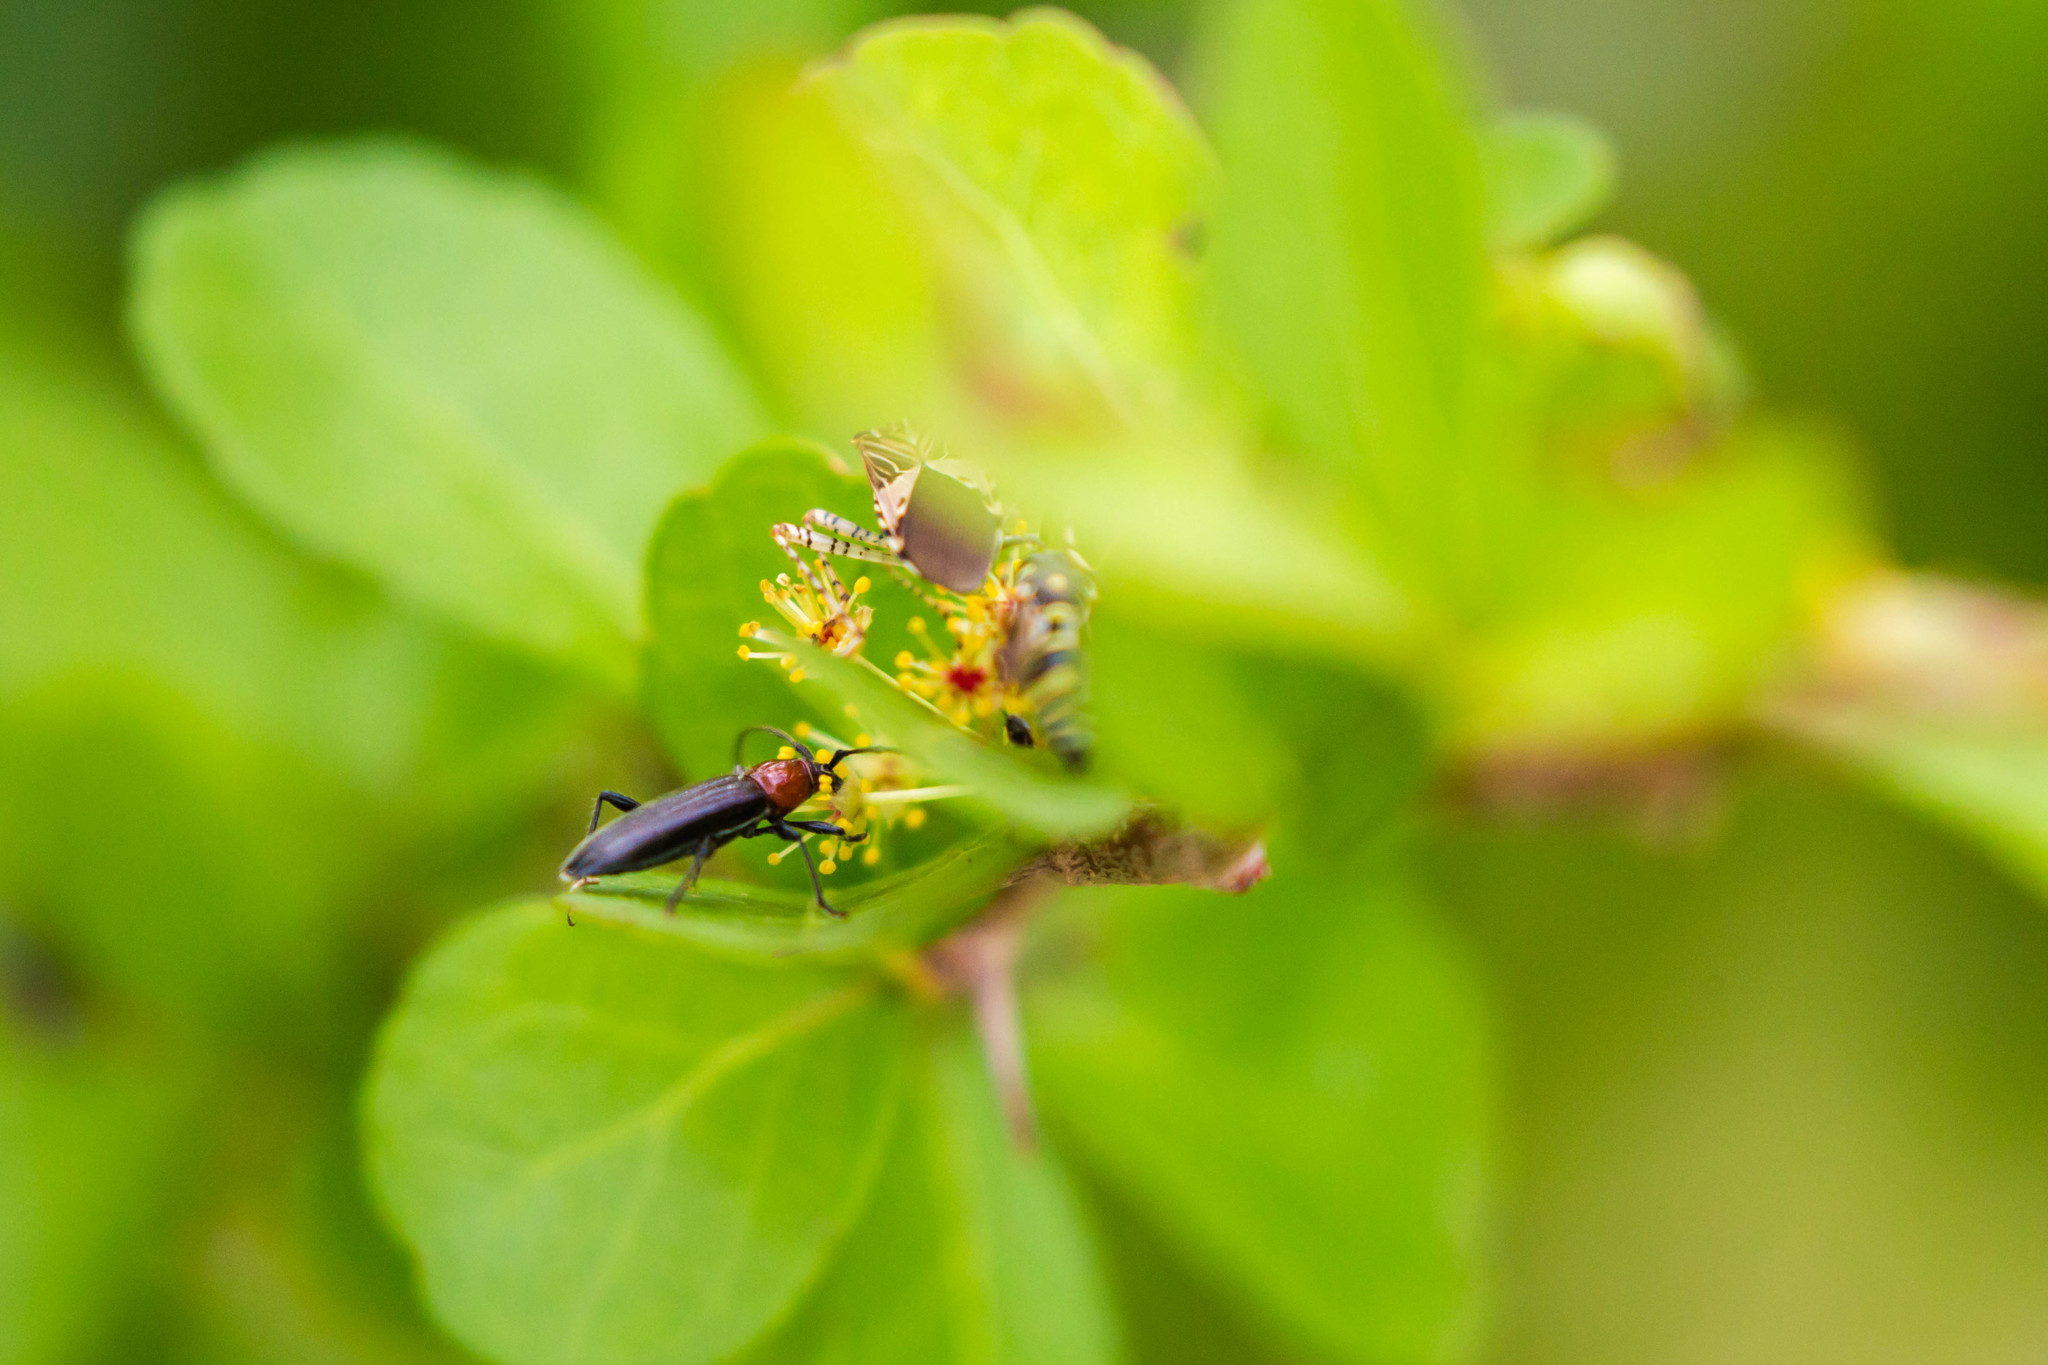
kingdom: Animalia
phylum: Arthropoda
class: Insecta
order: Coleoptera
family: Cerambycidae
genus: Stenosphenus
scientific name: Stenosphenus dolosus
